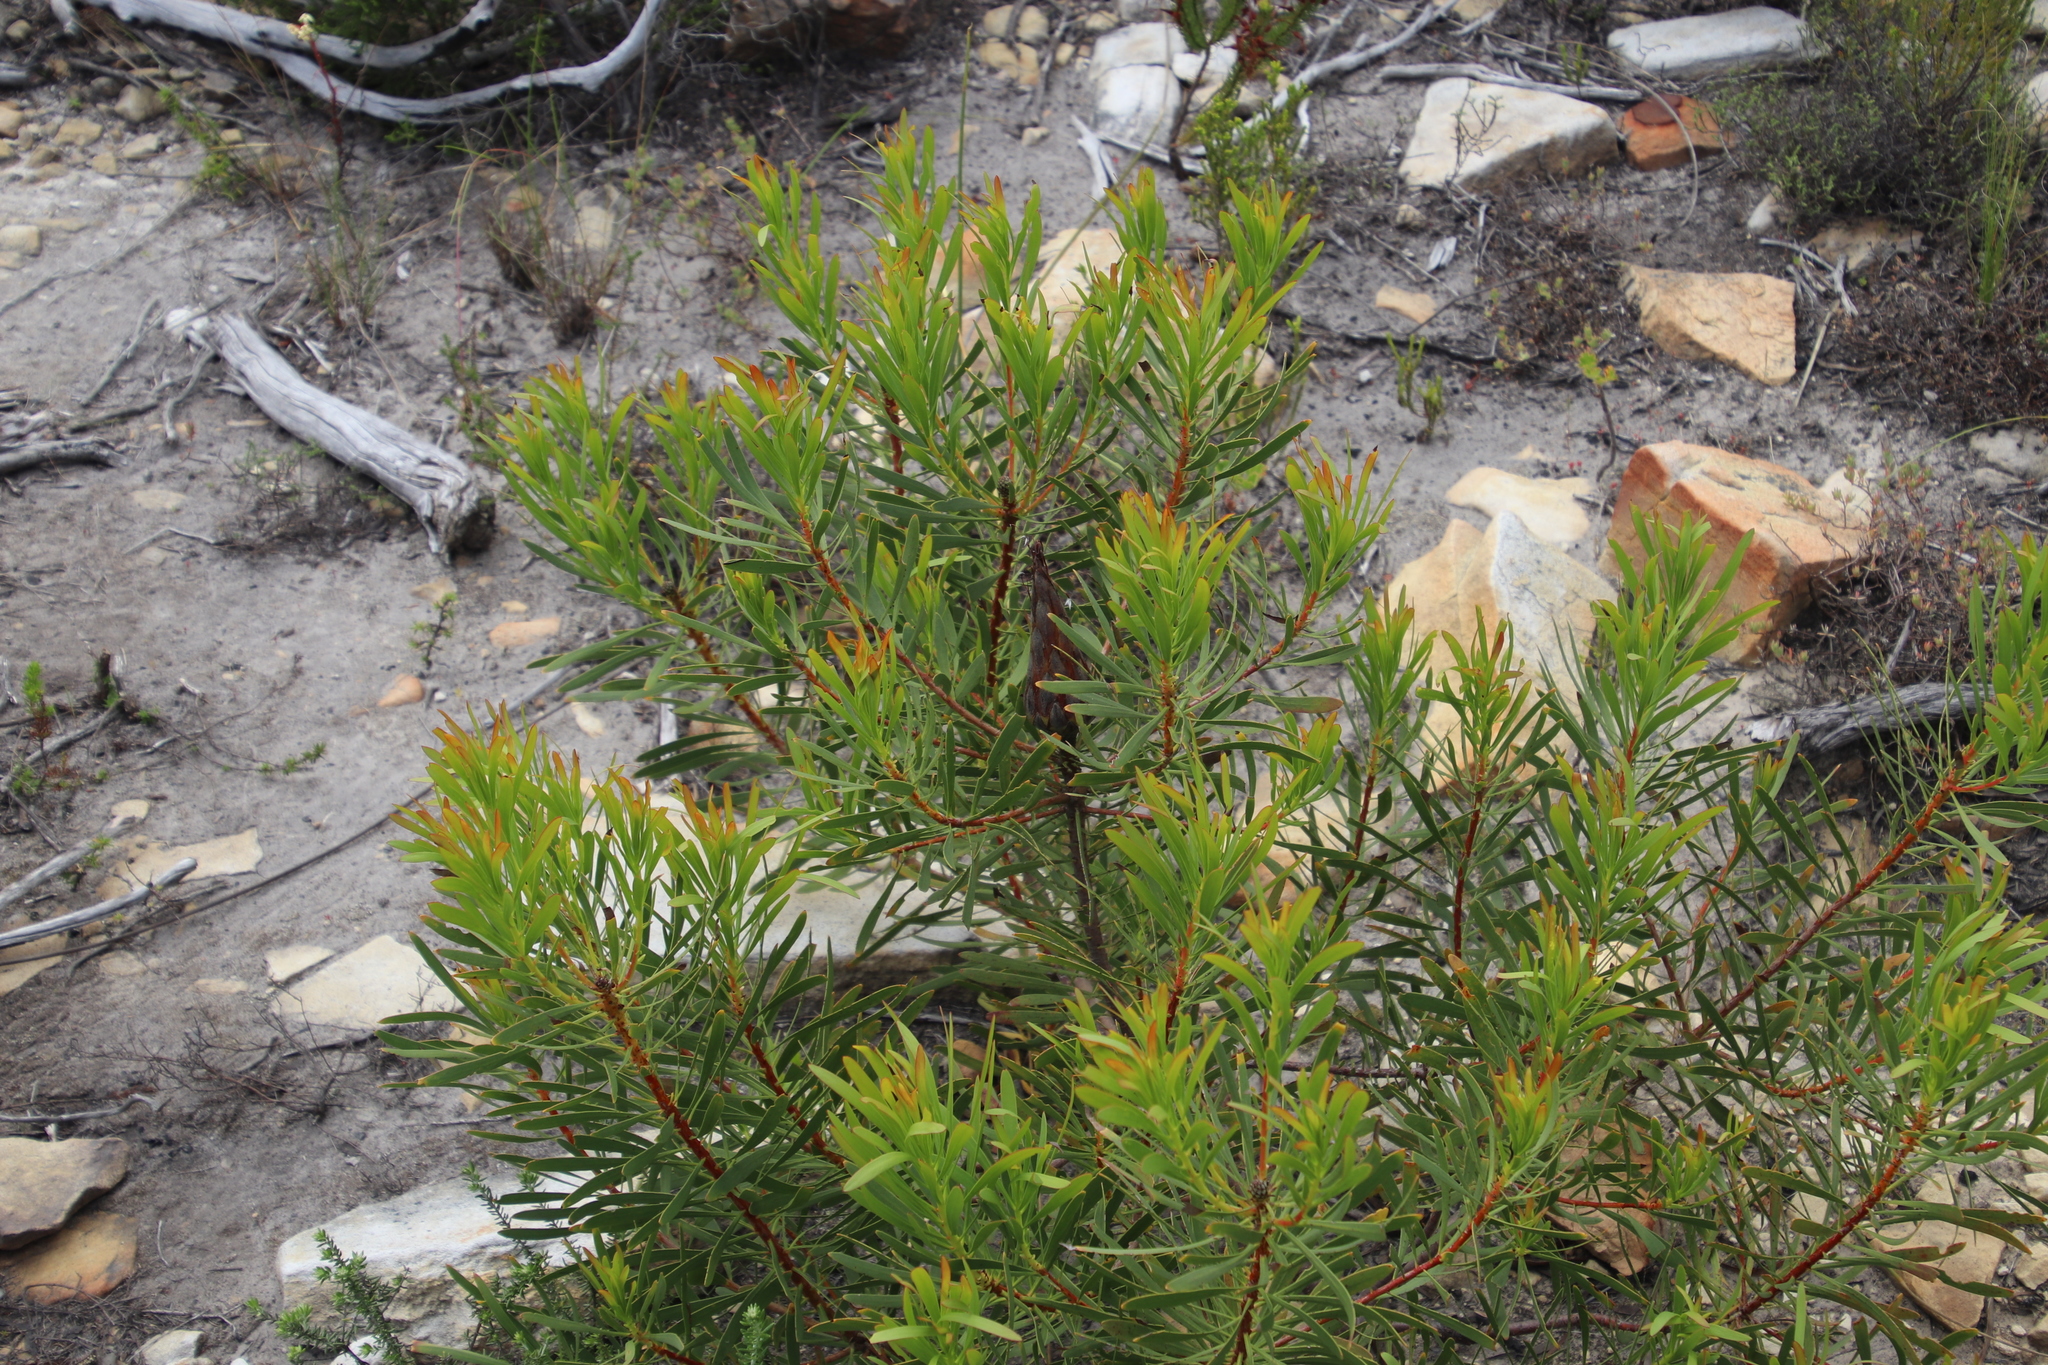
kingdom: Plantae
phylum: Tracheophyta
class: Magnoliopsida
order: Proteales
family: Proteaceae
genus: Protea
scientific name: Protea repens
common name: Sugarbush
